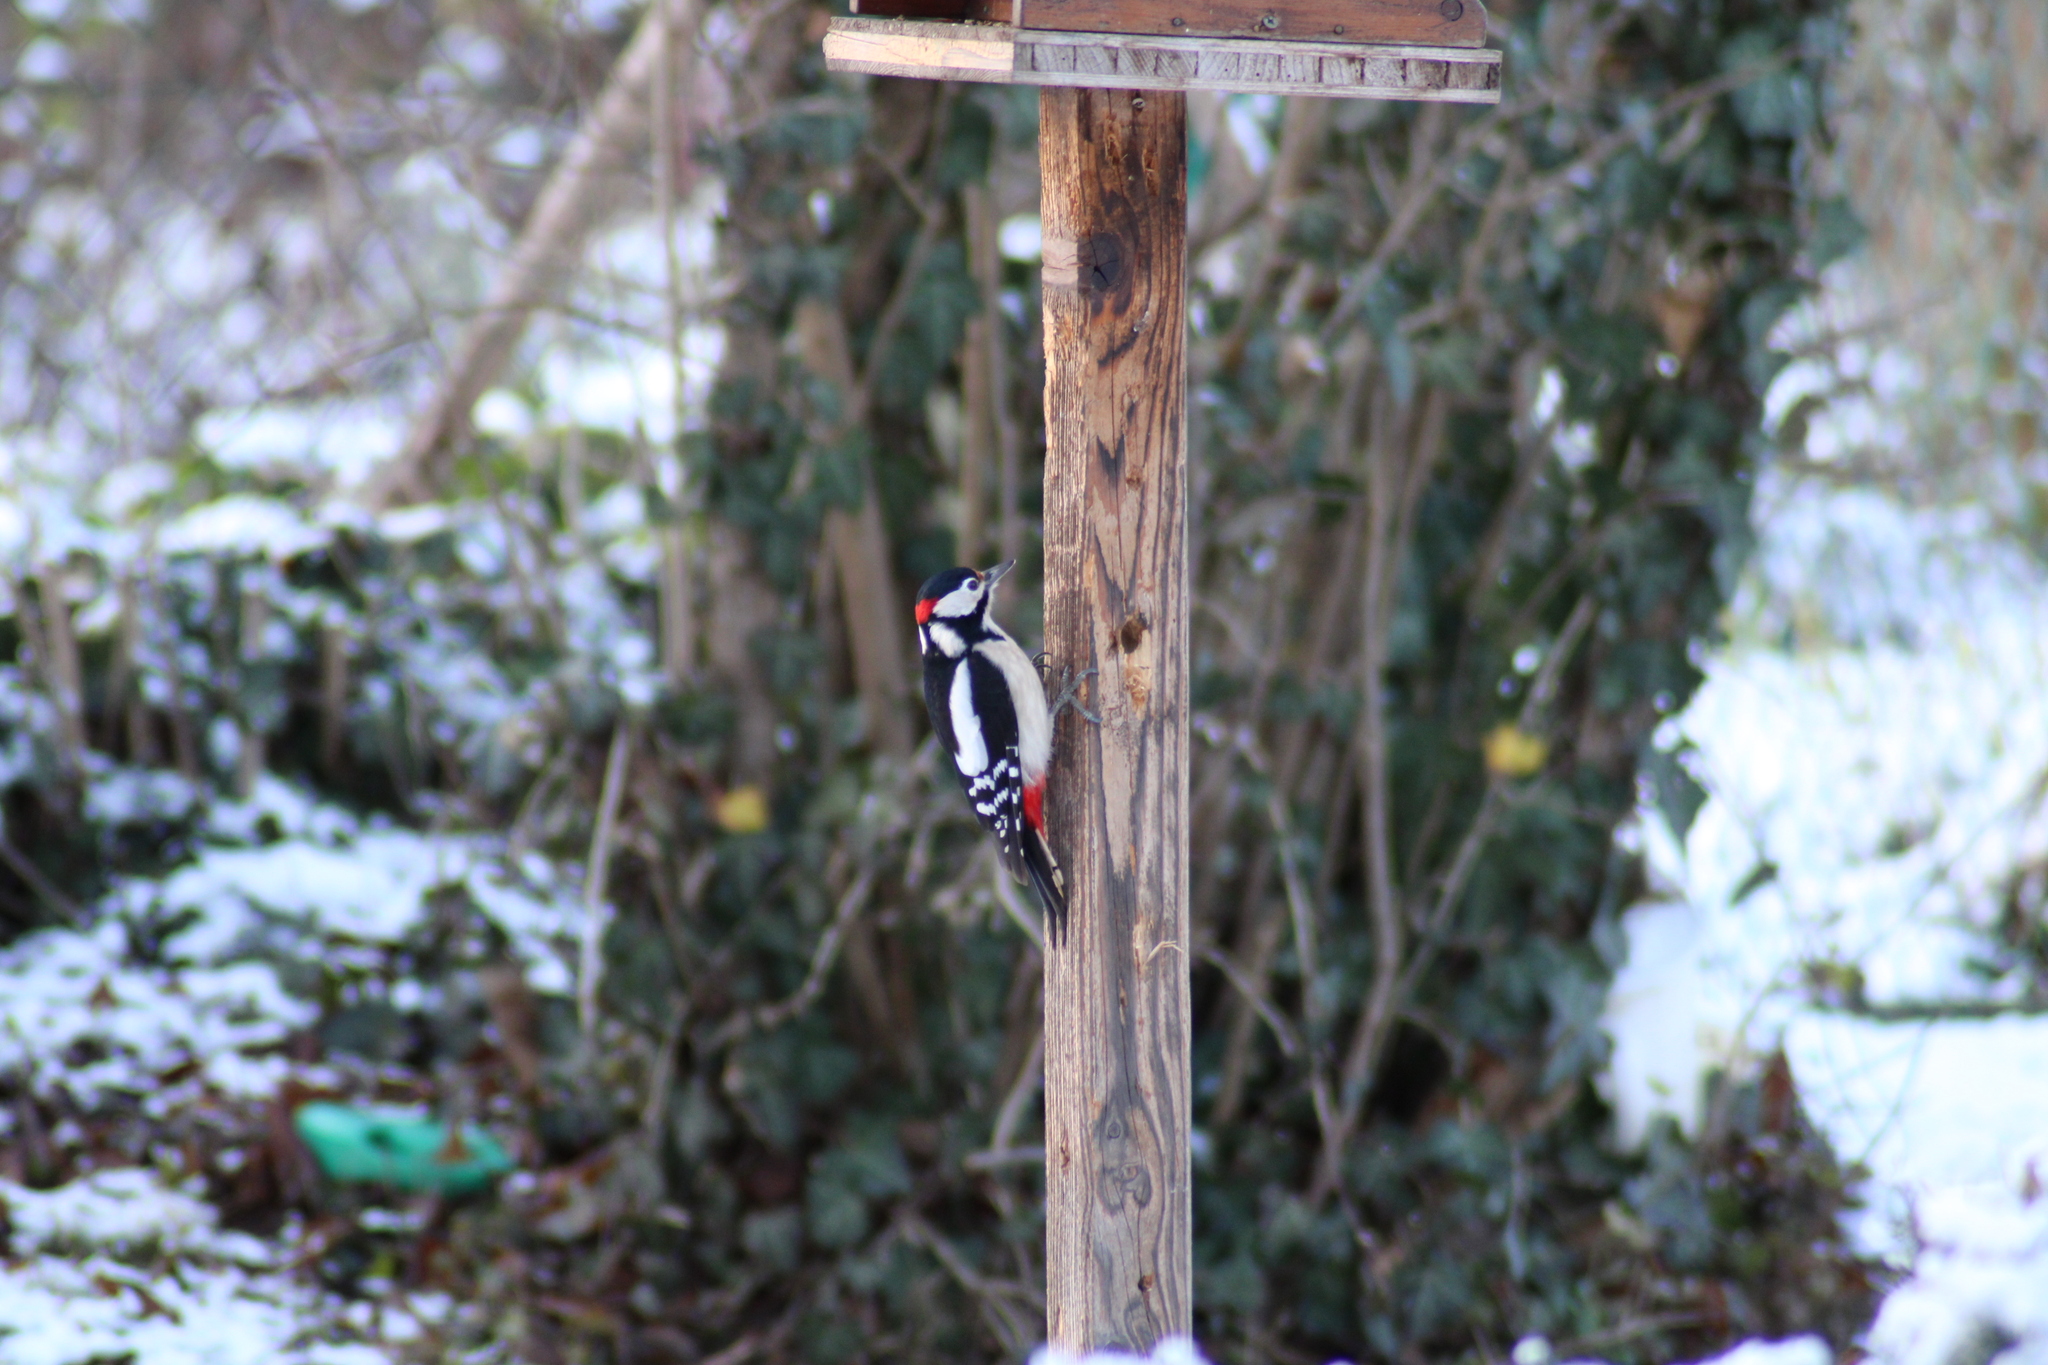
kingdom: Animalia
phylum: Chordata
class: Aves
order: Piciformes
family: Picidae
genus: Dendrocopos
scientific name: Dendrocopos major
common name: Great spotted woodpecker
